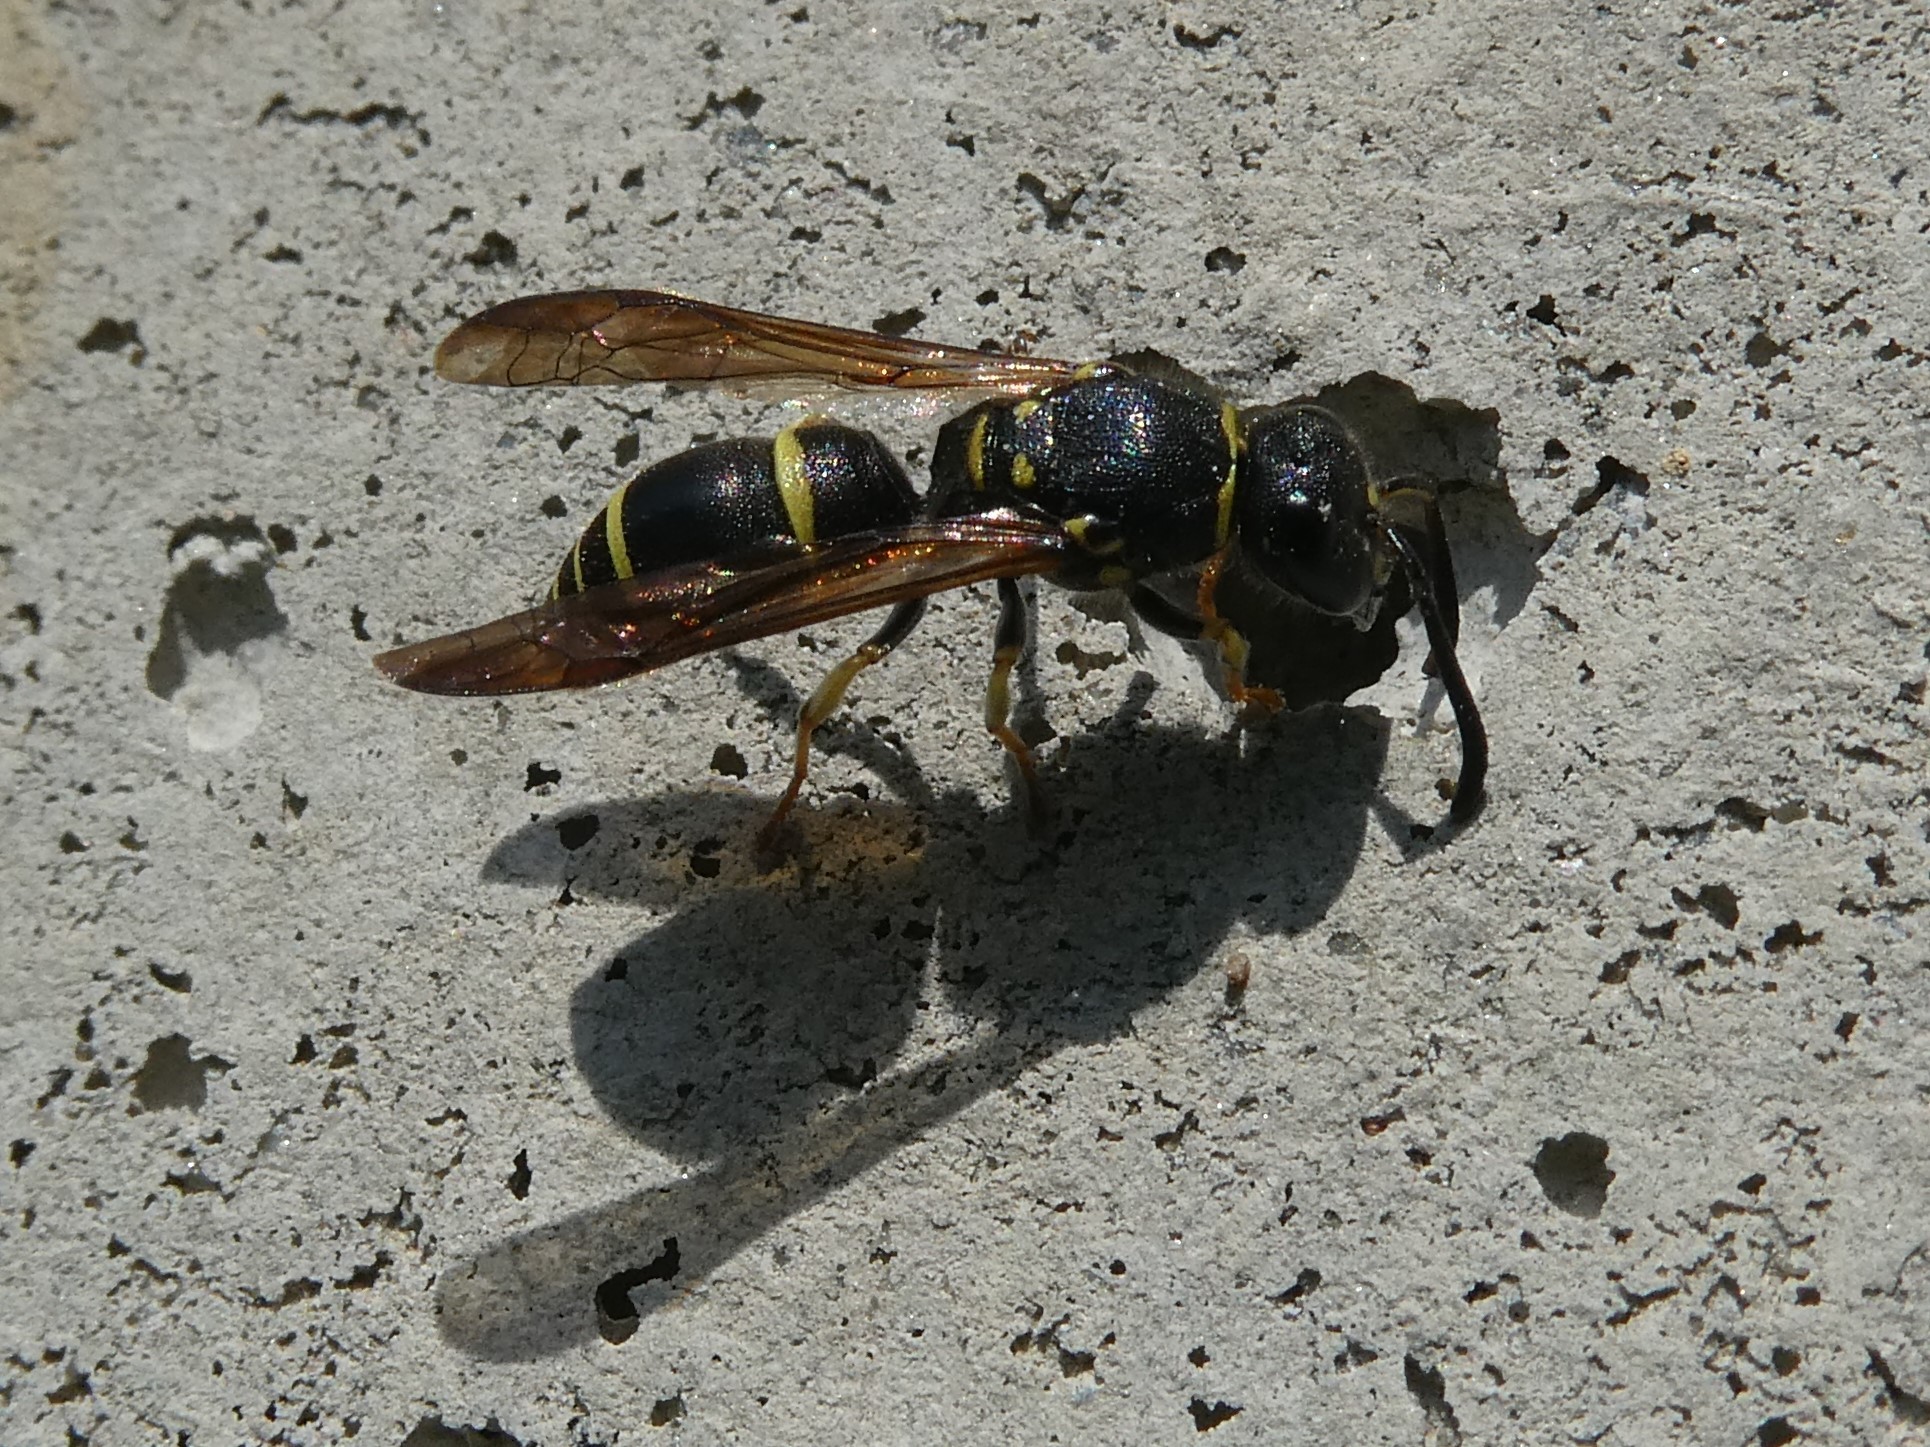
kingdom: Animalia
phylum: Arthropoda
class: Insecta
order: Hymenoptera
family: Vespidae
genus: Ancistrocerus
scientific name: Ancistrocerus adiabatus
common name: Bramble mason wasp
